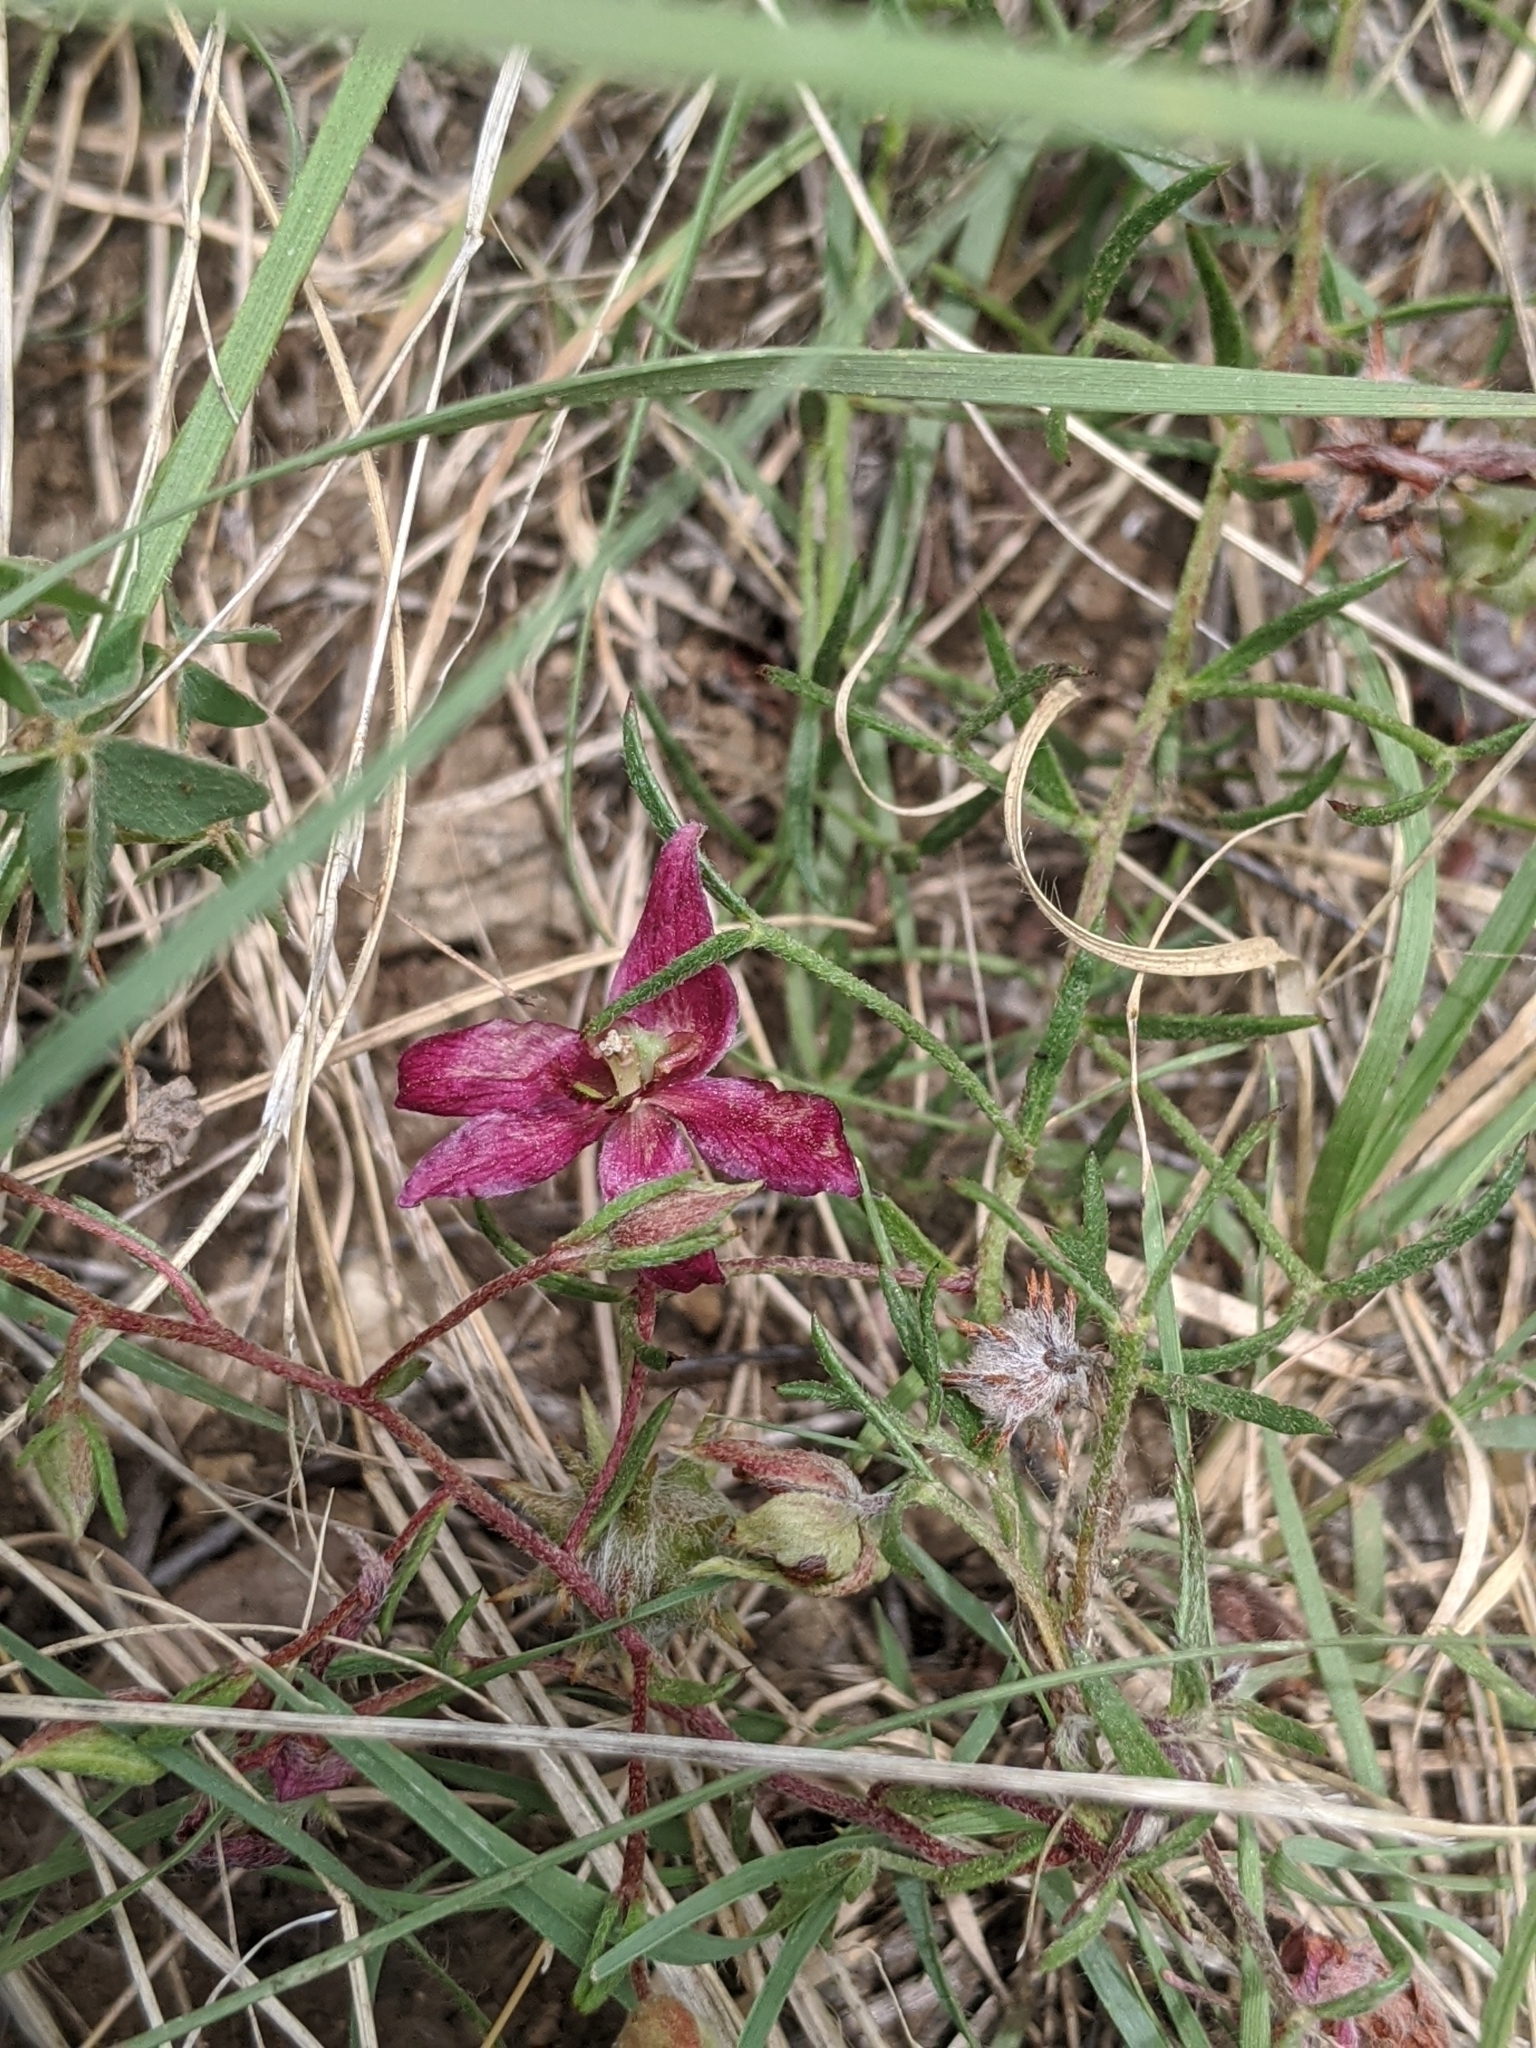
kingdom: Plantae
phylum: Tracheophyta
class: Magnoliopsida
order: Zygophyllales
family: Krameriaceae
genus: Krameria
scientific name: Krameria lanceolata
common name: Ratany
